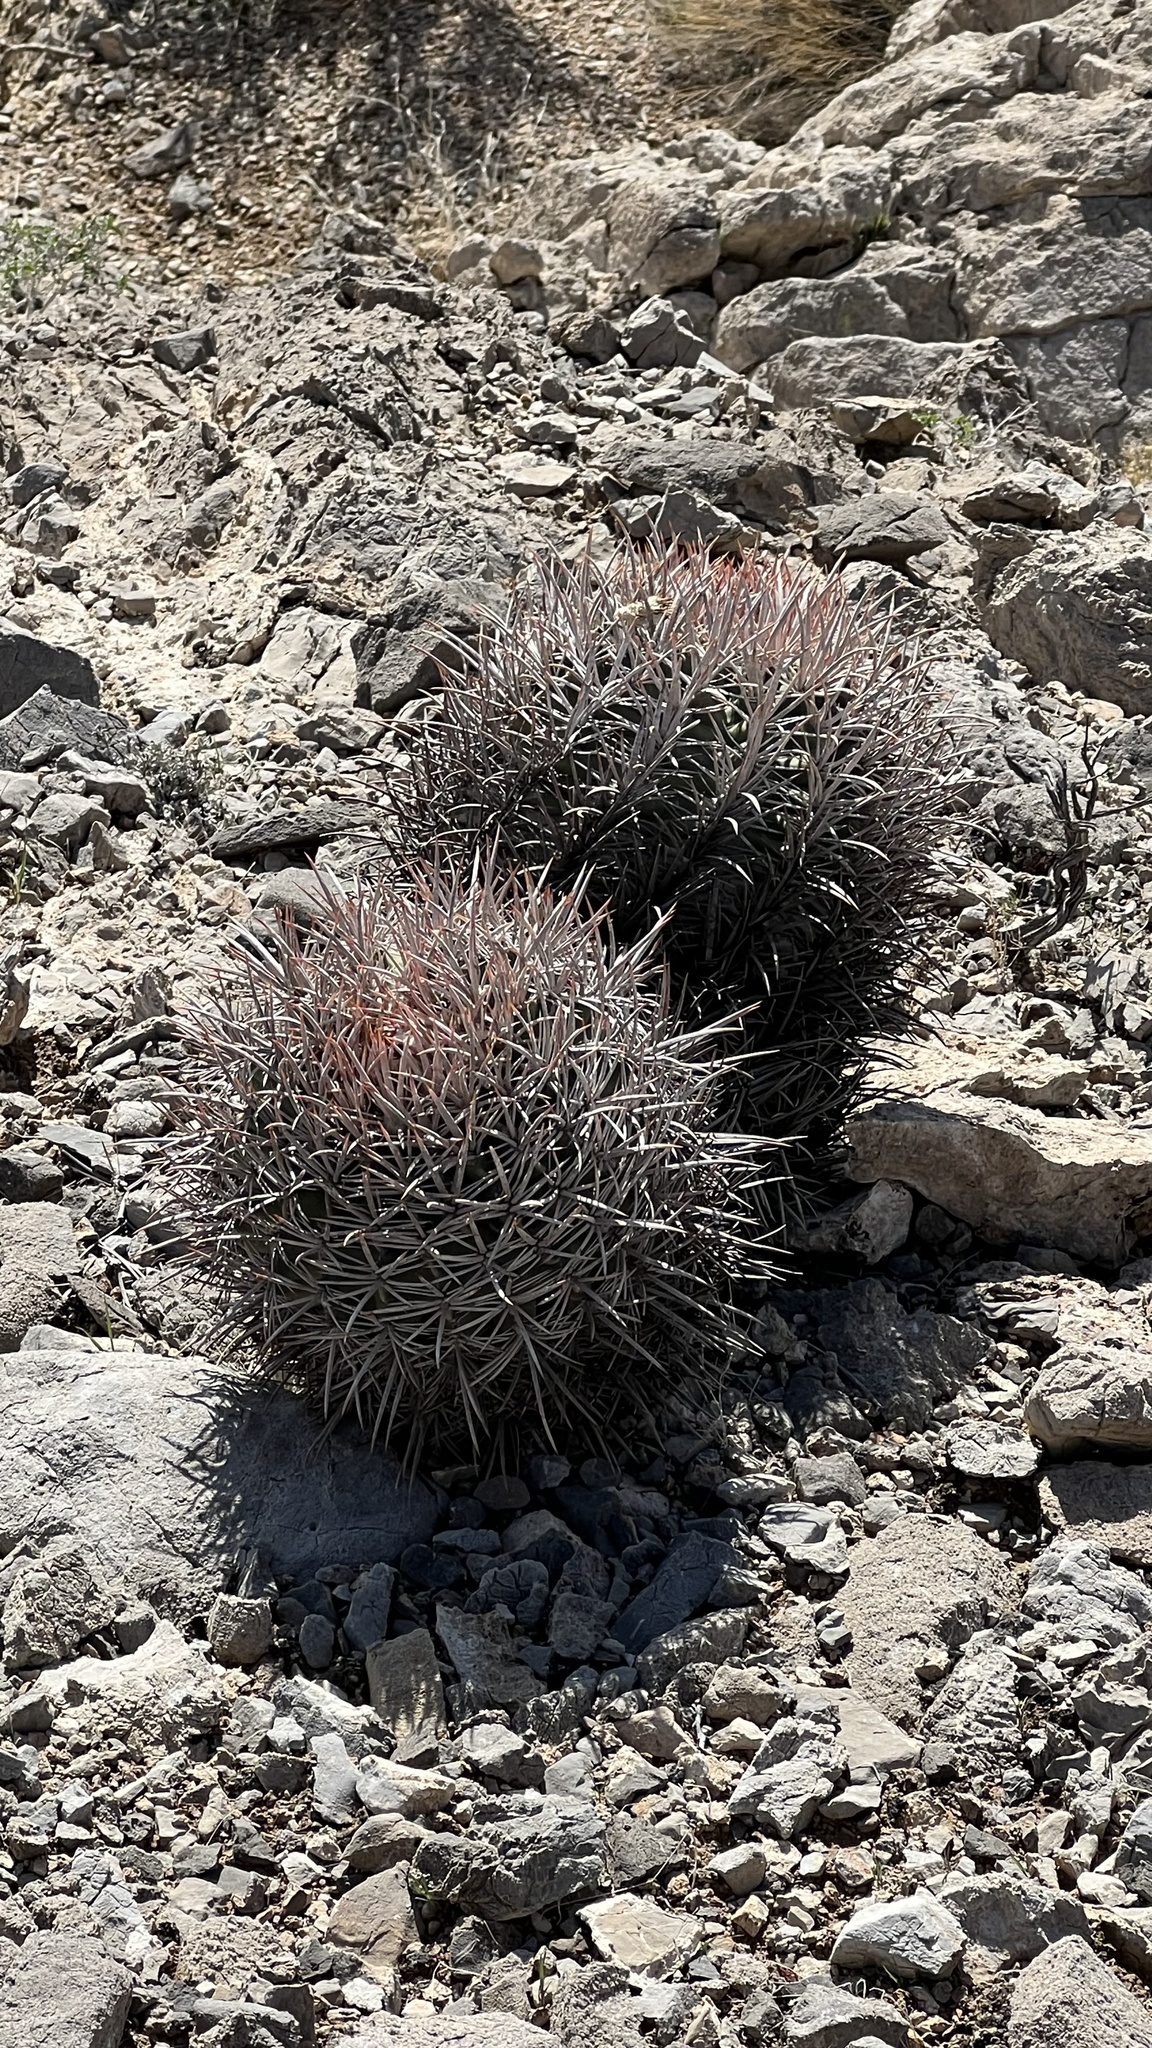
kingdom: Plantae
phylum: Tracheophyta
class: Magnoliopsida
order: Caryophyllales
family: Cactaceae
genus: Echinocactus
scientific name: Echinocactus polycephalus
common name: Cottontop cactus
